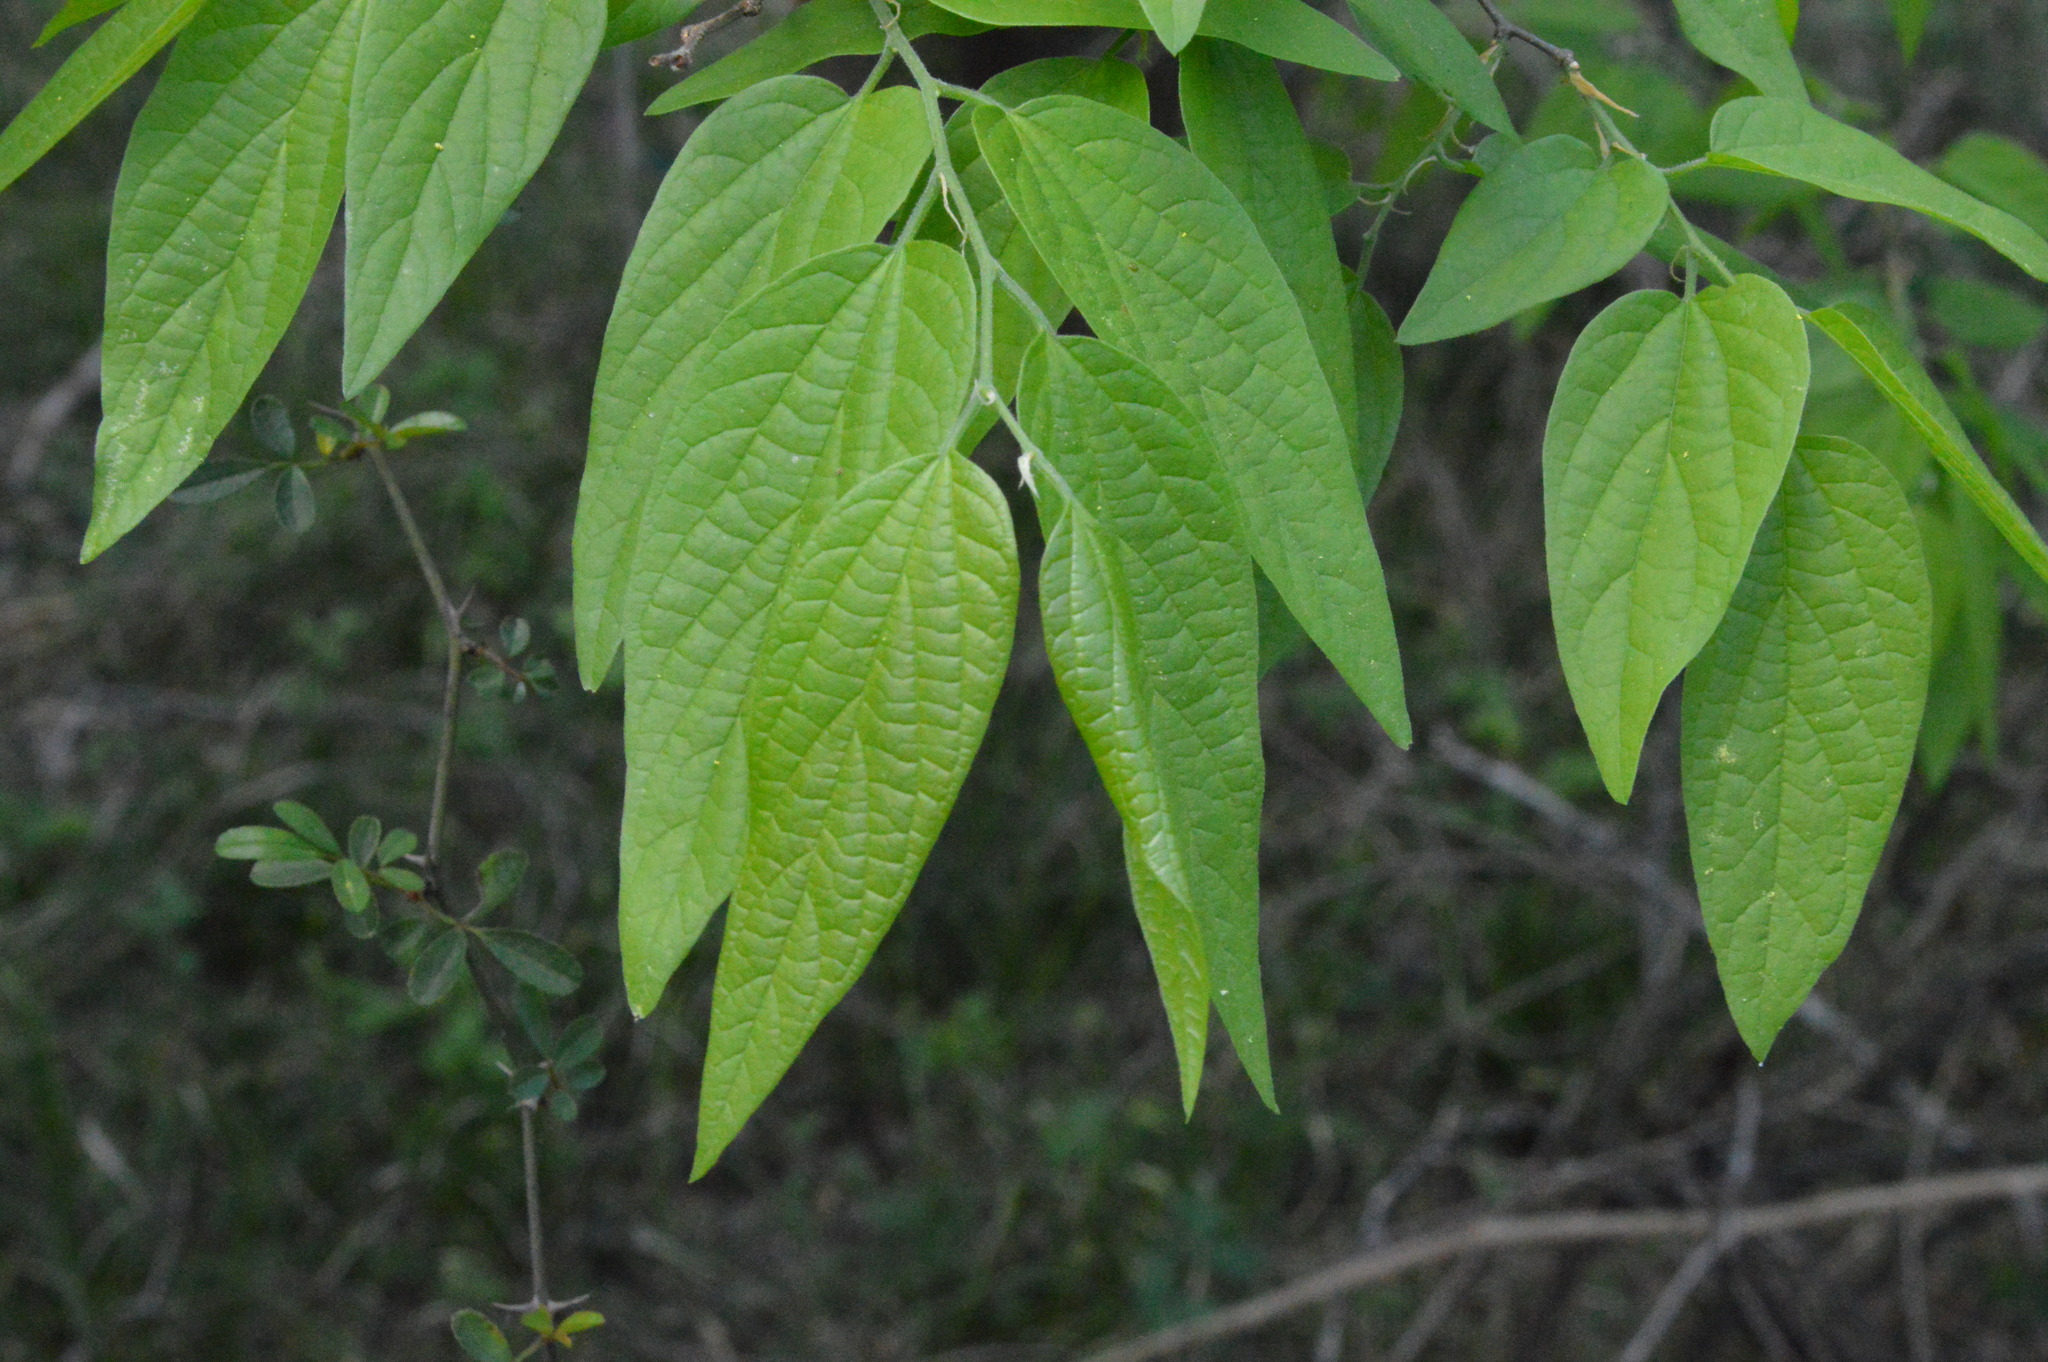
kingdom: Plantae
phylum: Tracheophyta
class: Magnoliopsida
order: Rosales
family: Cannabaceae
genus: Celtis
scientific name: Celtis laevigata
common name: Sugarberry
